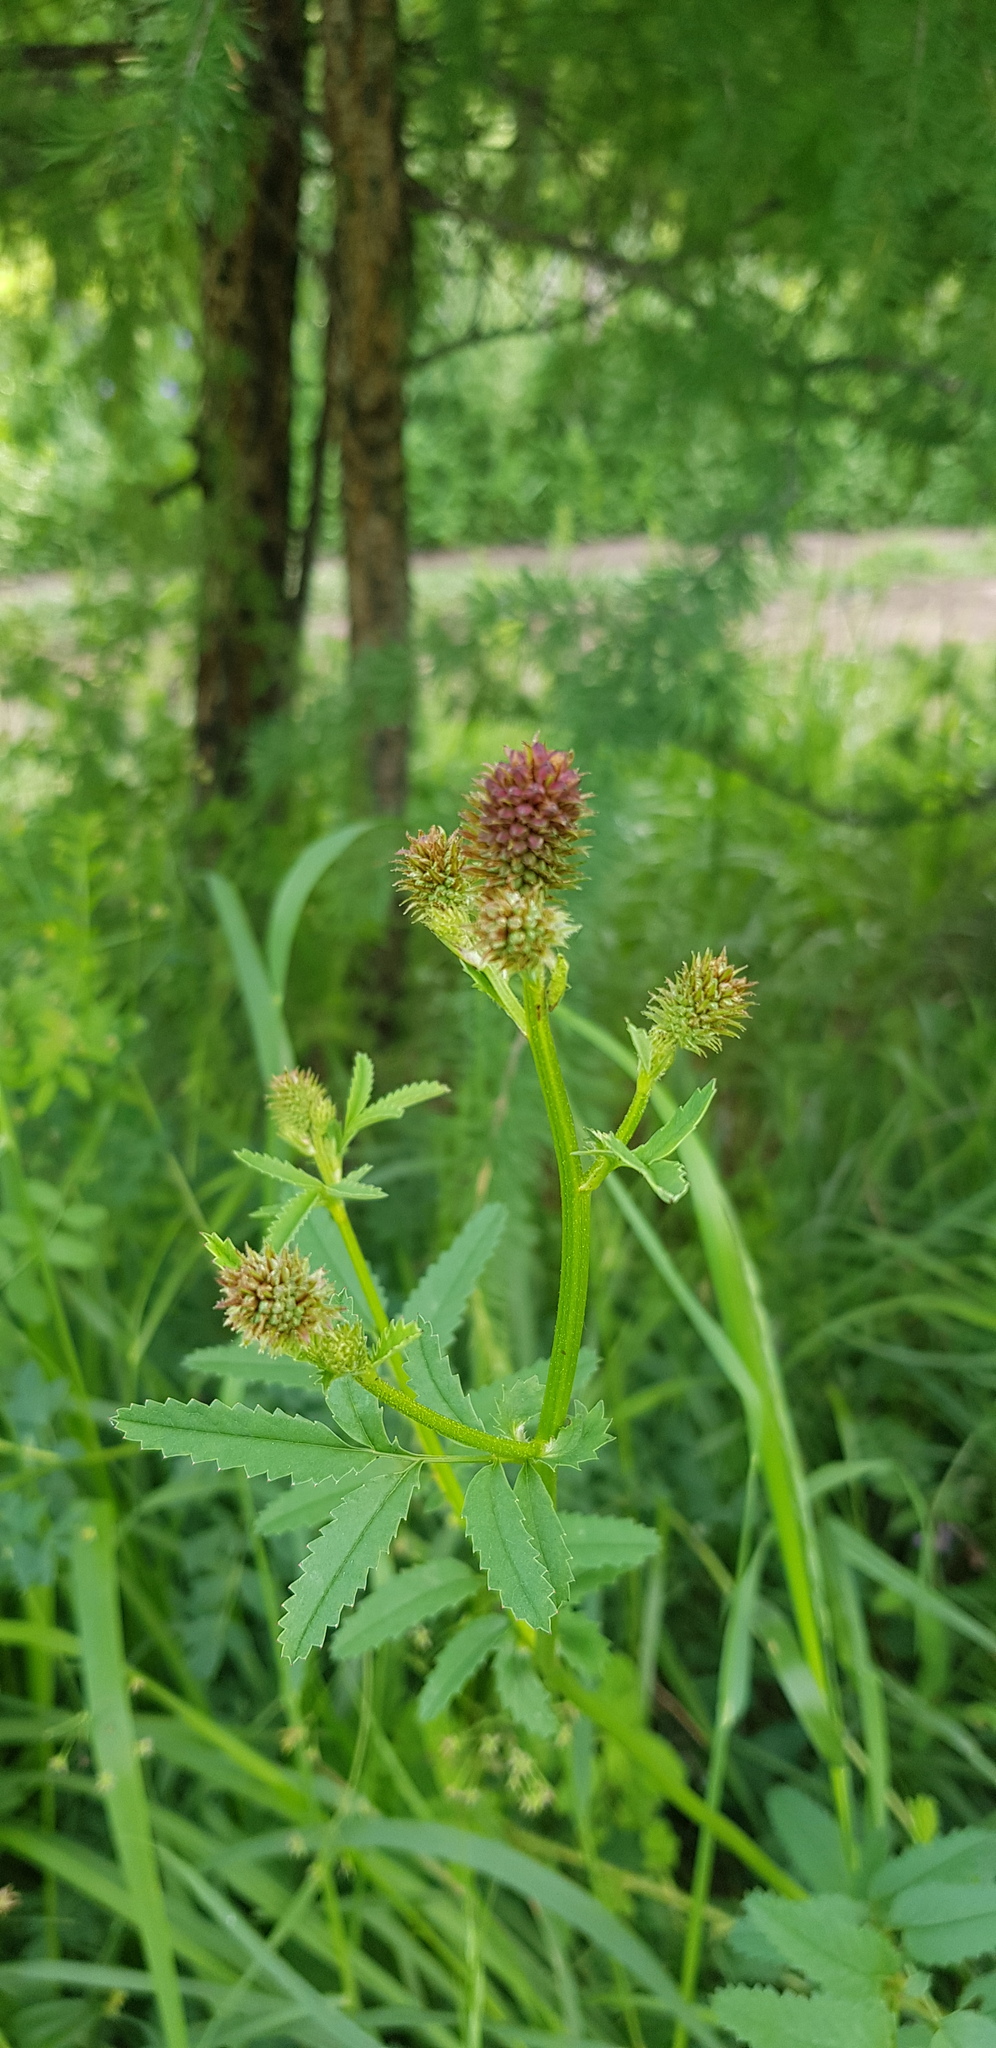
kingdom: Plantae
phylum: Tracheophyta
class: Magnoliopsida
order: Rosales
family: Rosaceae
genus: Sanguisorba
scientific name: Sanguisorba officinalis
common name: Great burnet
